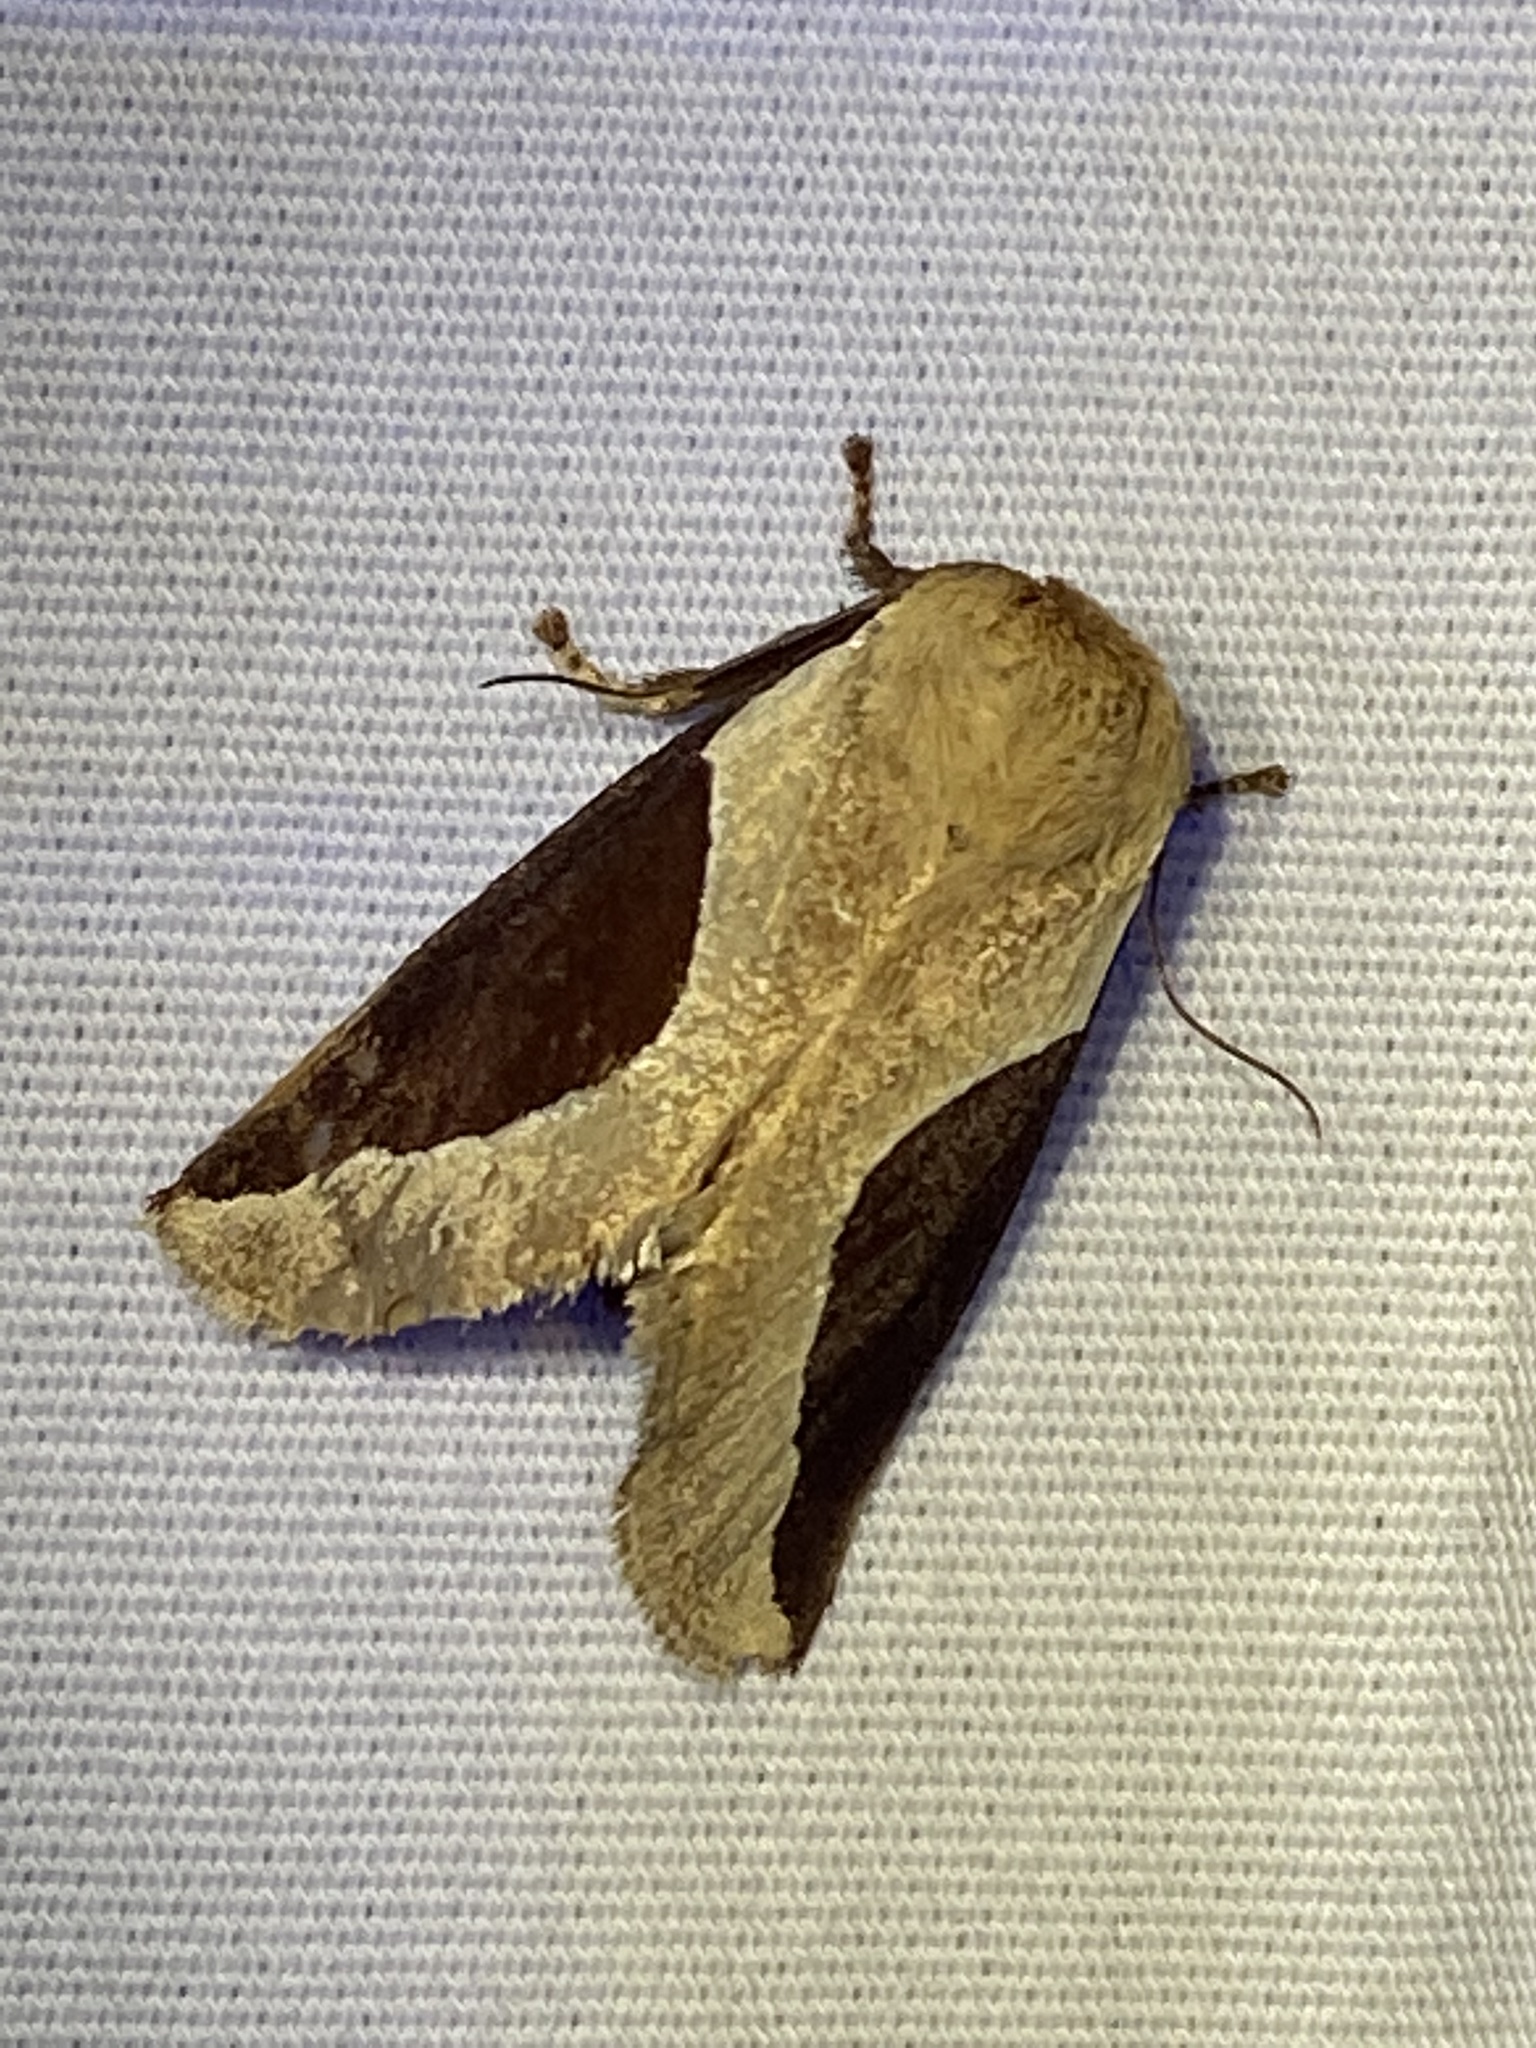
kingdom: Animalia
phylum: Arthropoda
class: Insecta
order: Lepidoptera
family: Limacodidae
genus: Prolimacodes
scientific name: Prolimacodes badia
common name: Skiff moth
